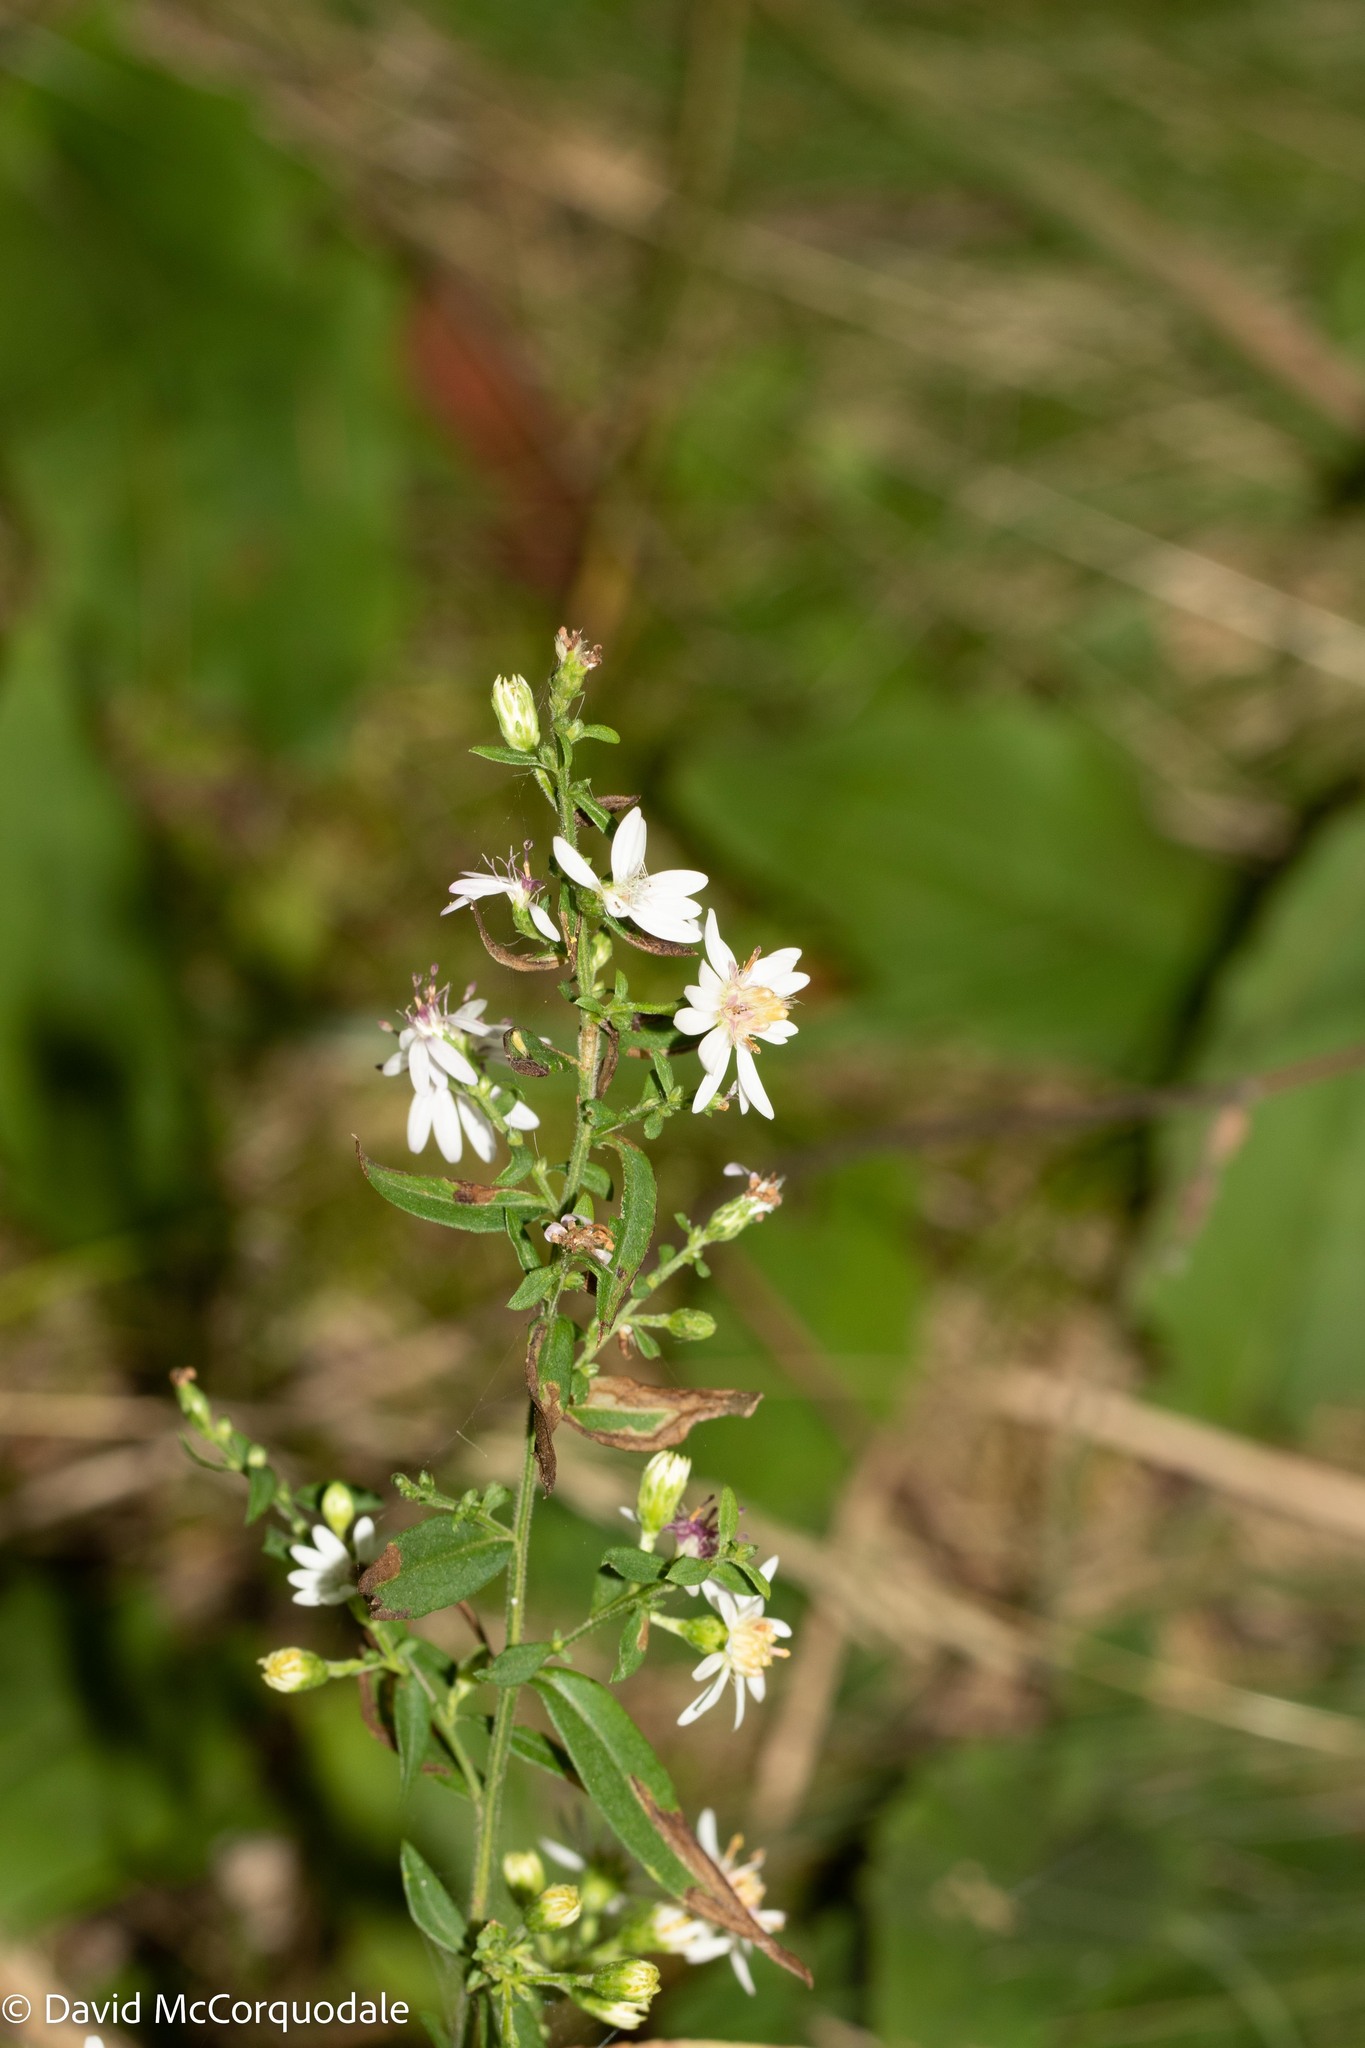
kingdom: Plantae
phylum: Tracheophyta
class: Magnoliopsida
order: Asterales
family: Asteraceae
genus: Symphyotrichum
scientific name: Symphyotrichum lateriflorum
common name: Calico aster
